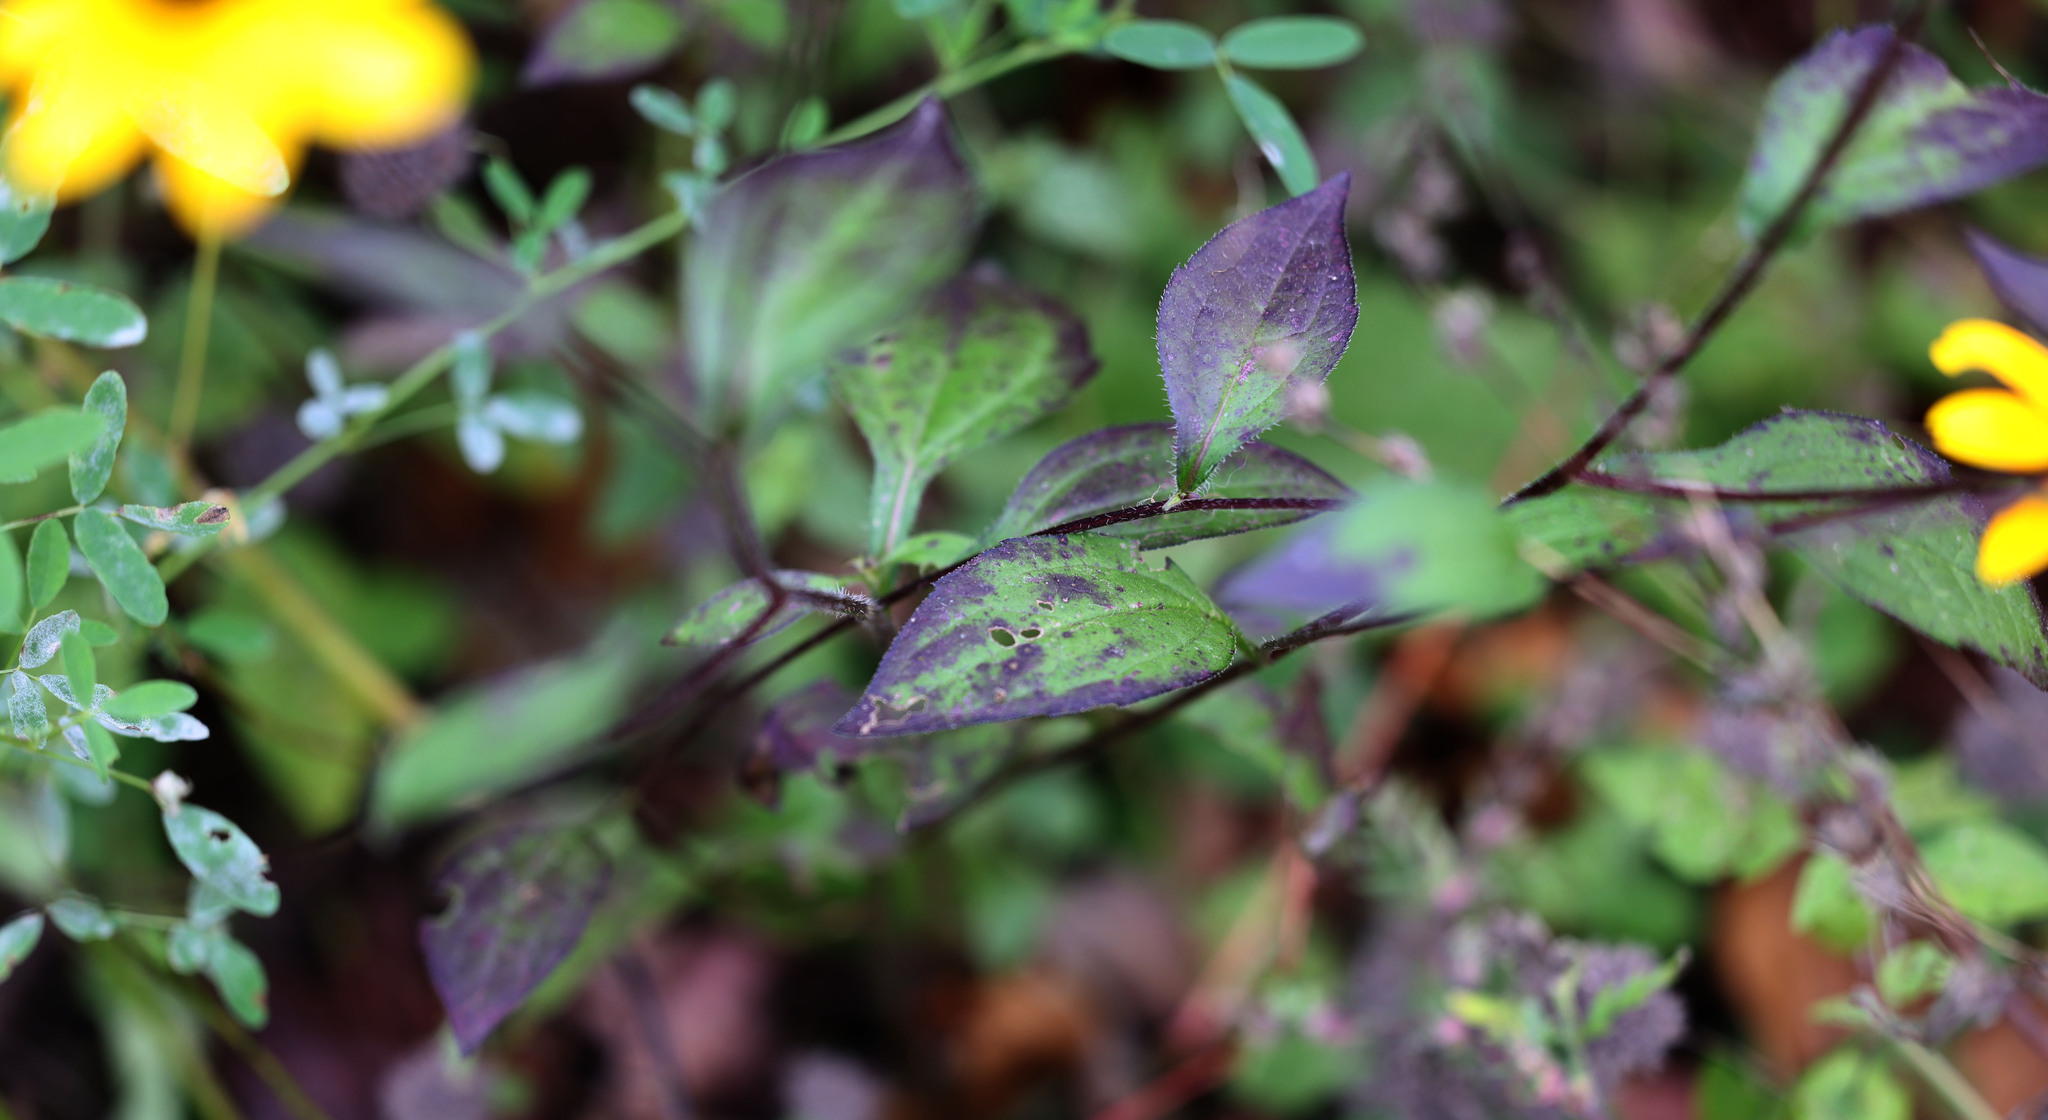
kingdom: Plantae
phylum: Tracheophyta
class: Magnoliopsida
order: Asterales
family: Asteraceae
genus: Rudbeckia
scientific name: Rudbeckia triloba
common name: Thin-leaved coneflower
